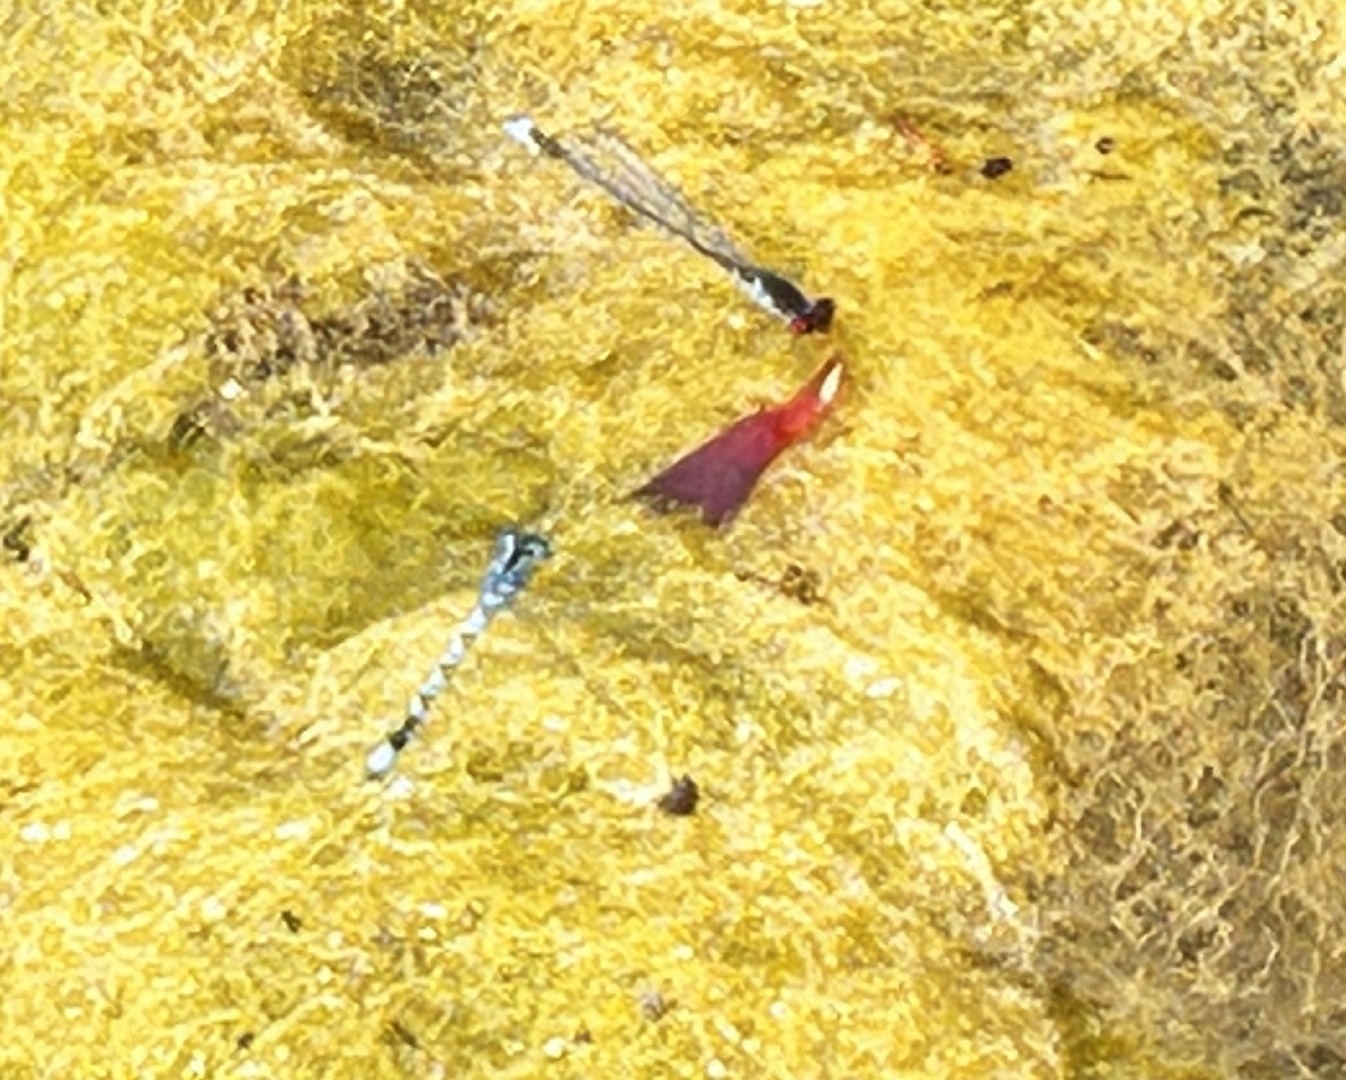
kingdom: Animalia
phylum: Arthropoda
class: Insecta
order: Odonata
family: Coenagrionidae
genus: Erythromma
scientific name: Erythromma lindenii
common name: Blue-eye
